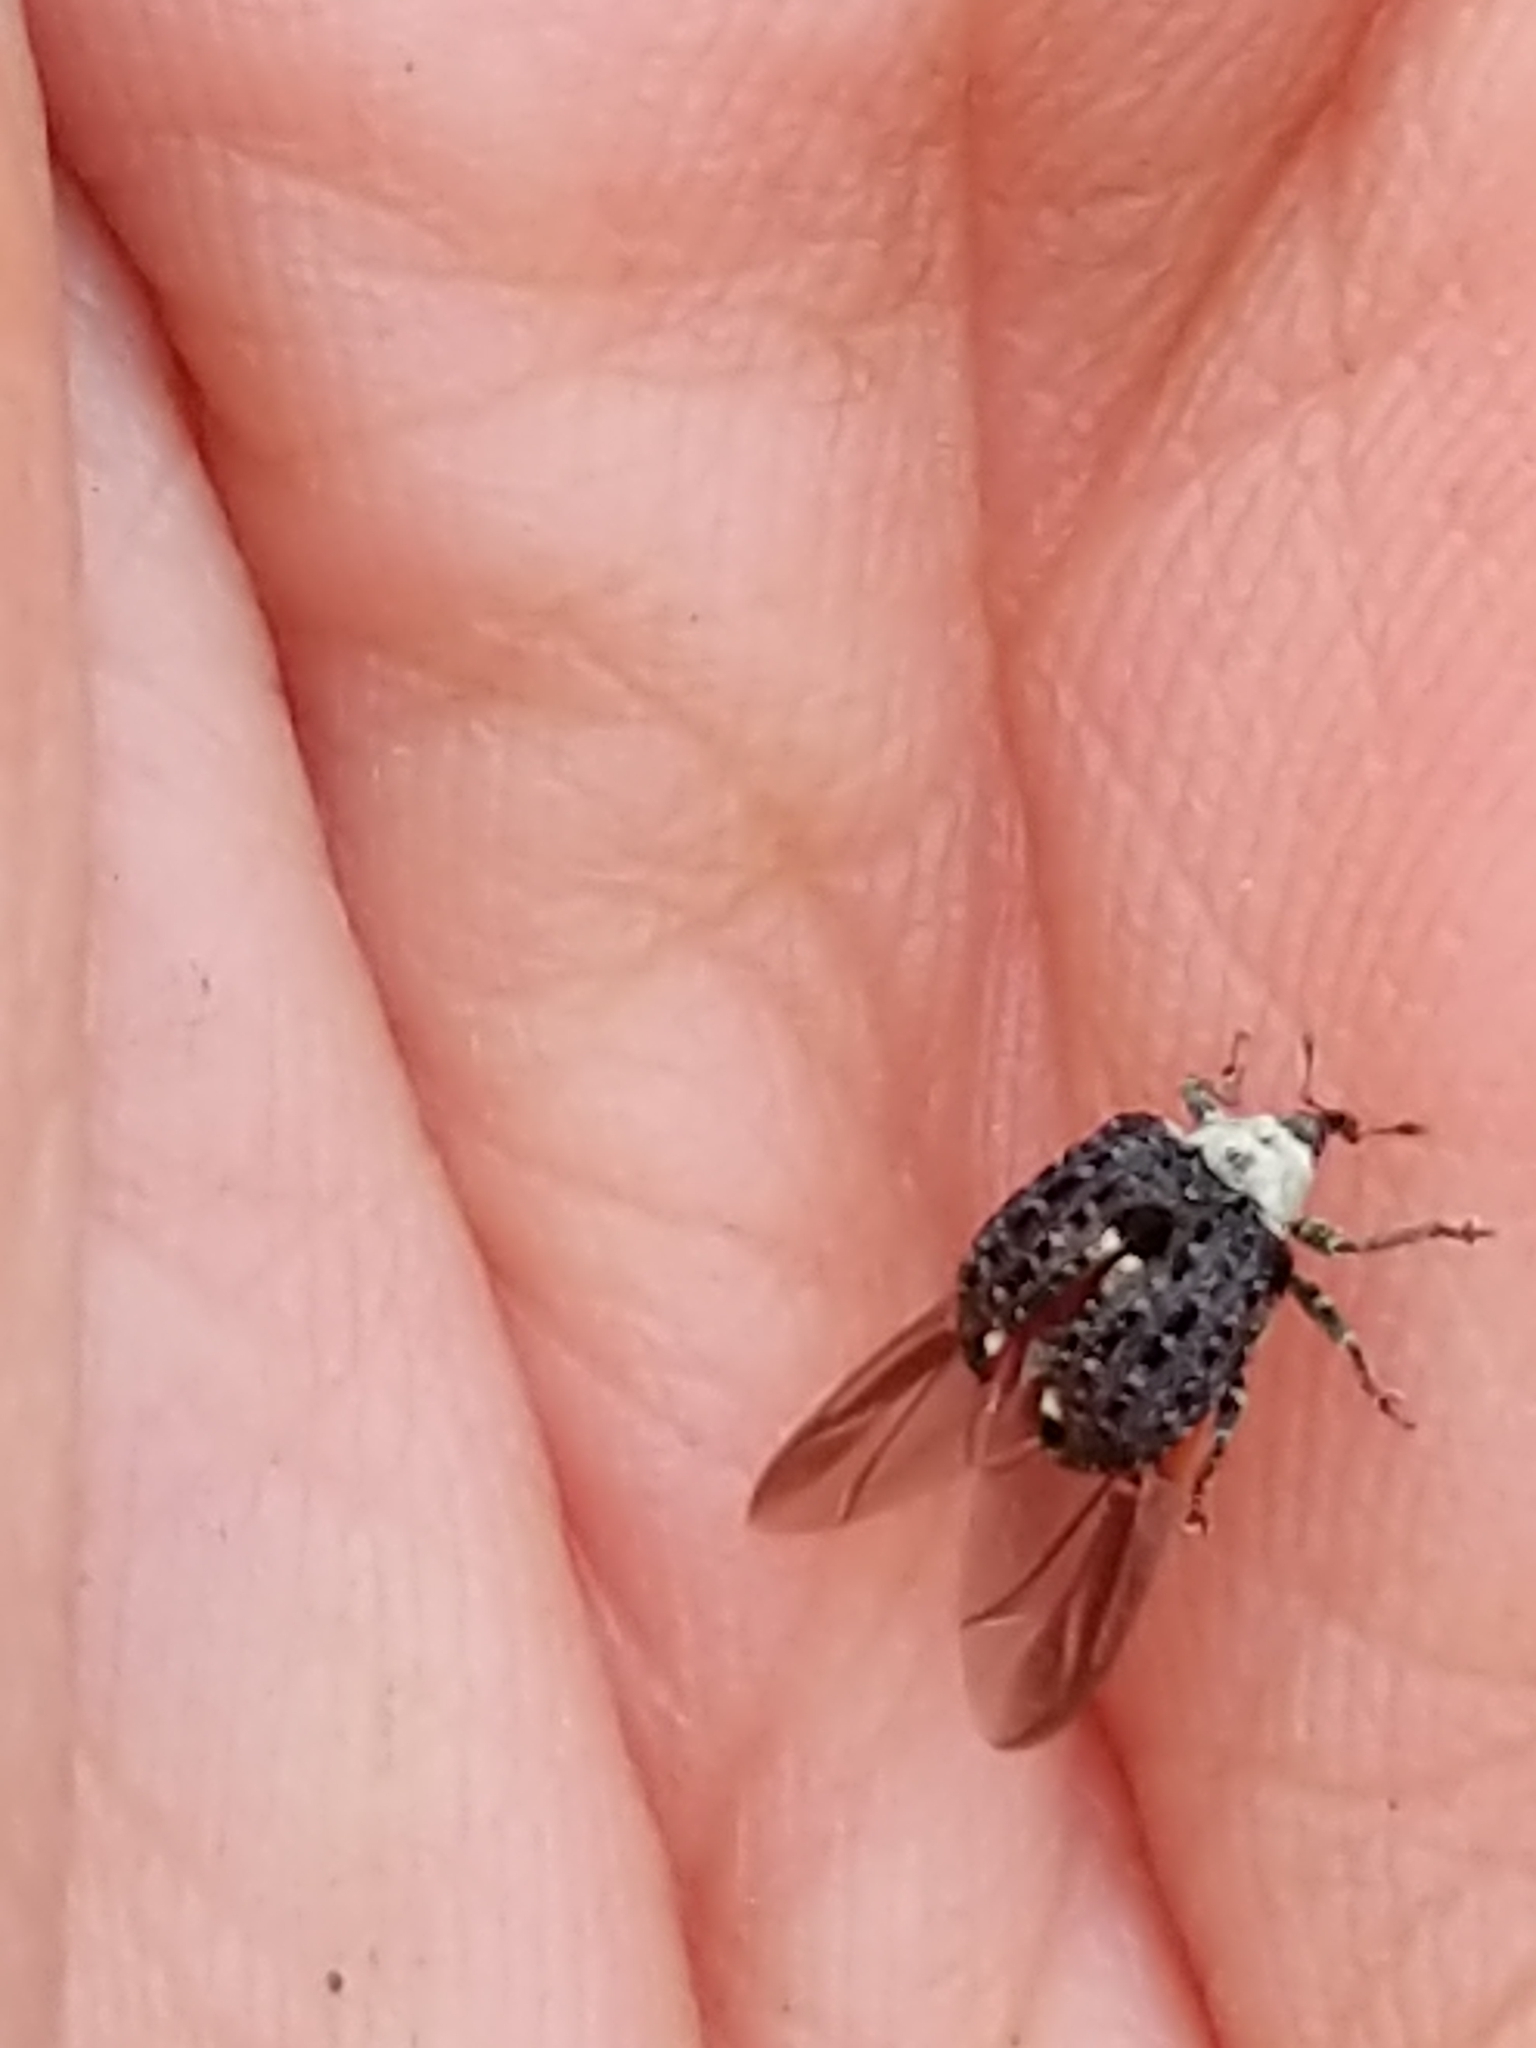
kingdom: Animalia
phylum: Arthropoda
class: Insecta
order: Coleoptera
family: Curculionidae
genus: Cionus
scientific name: Cionus scrophulariae
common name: Common figwort weevil
